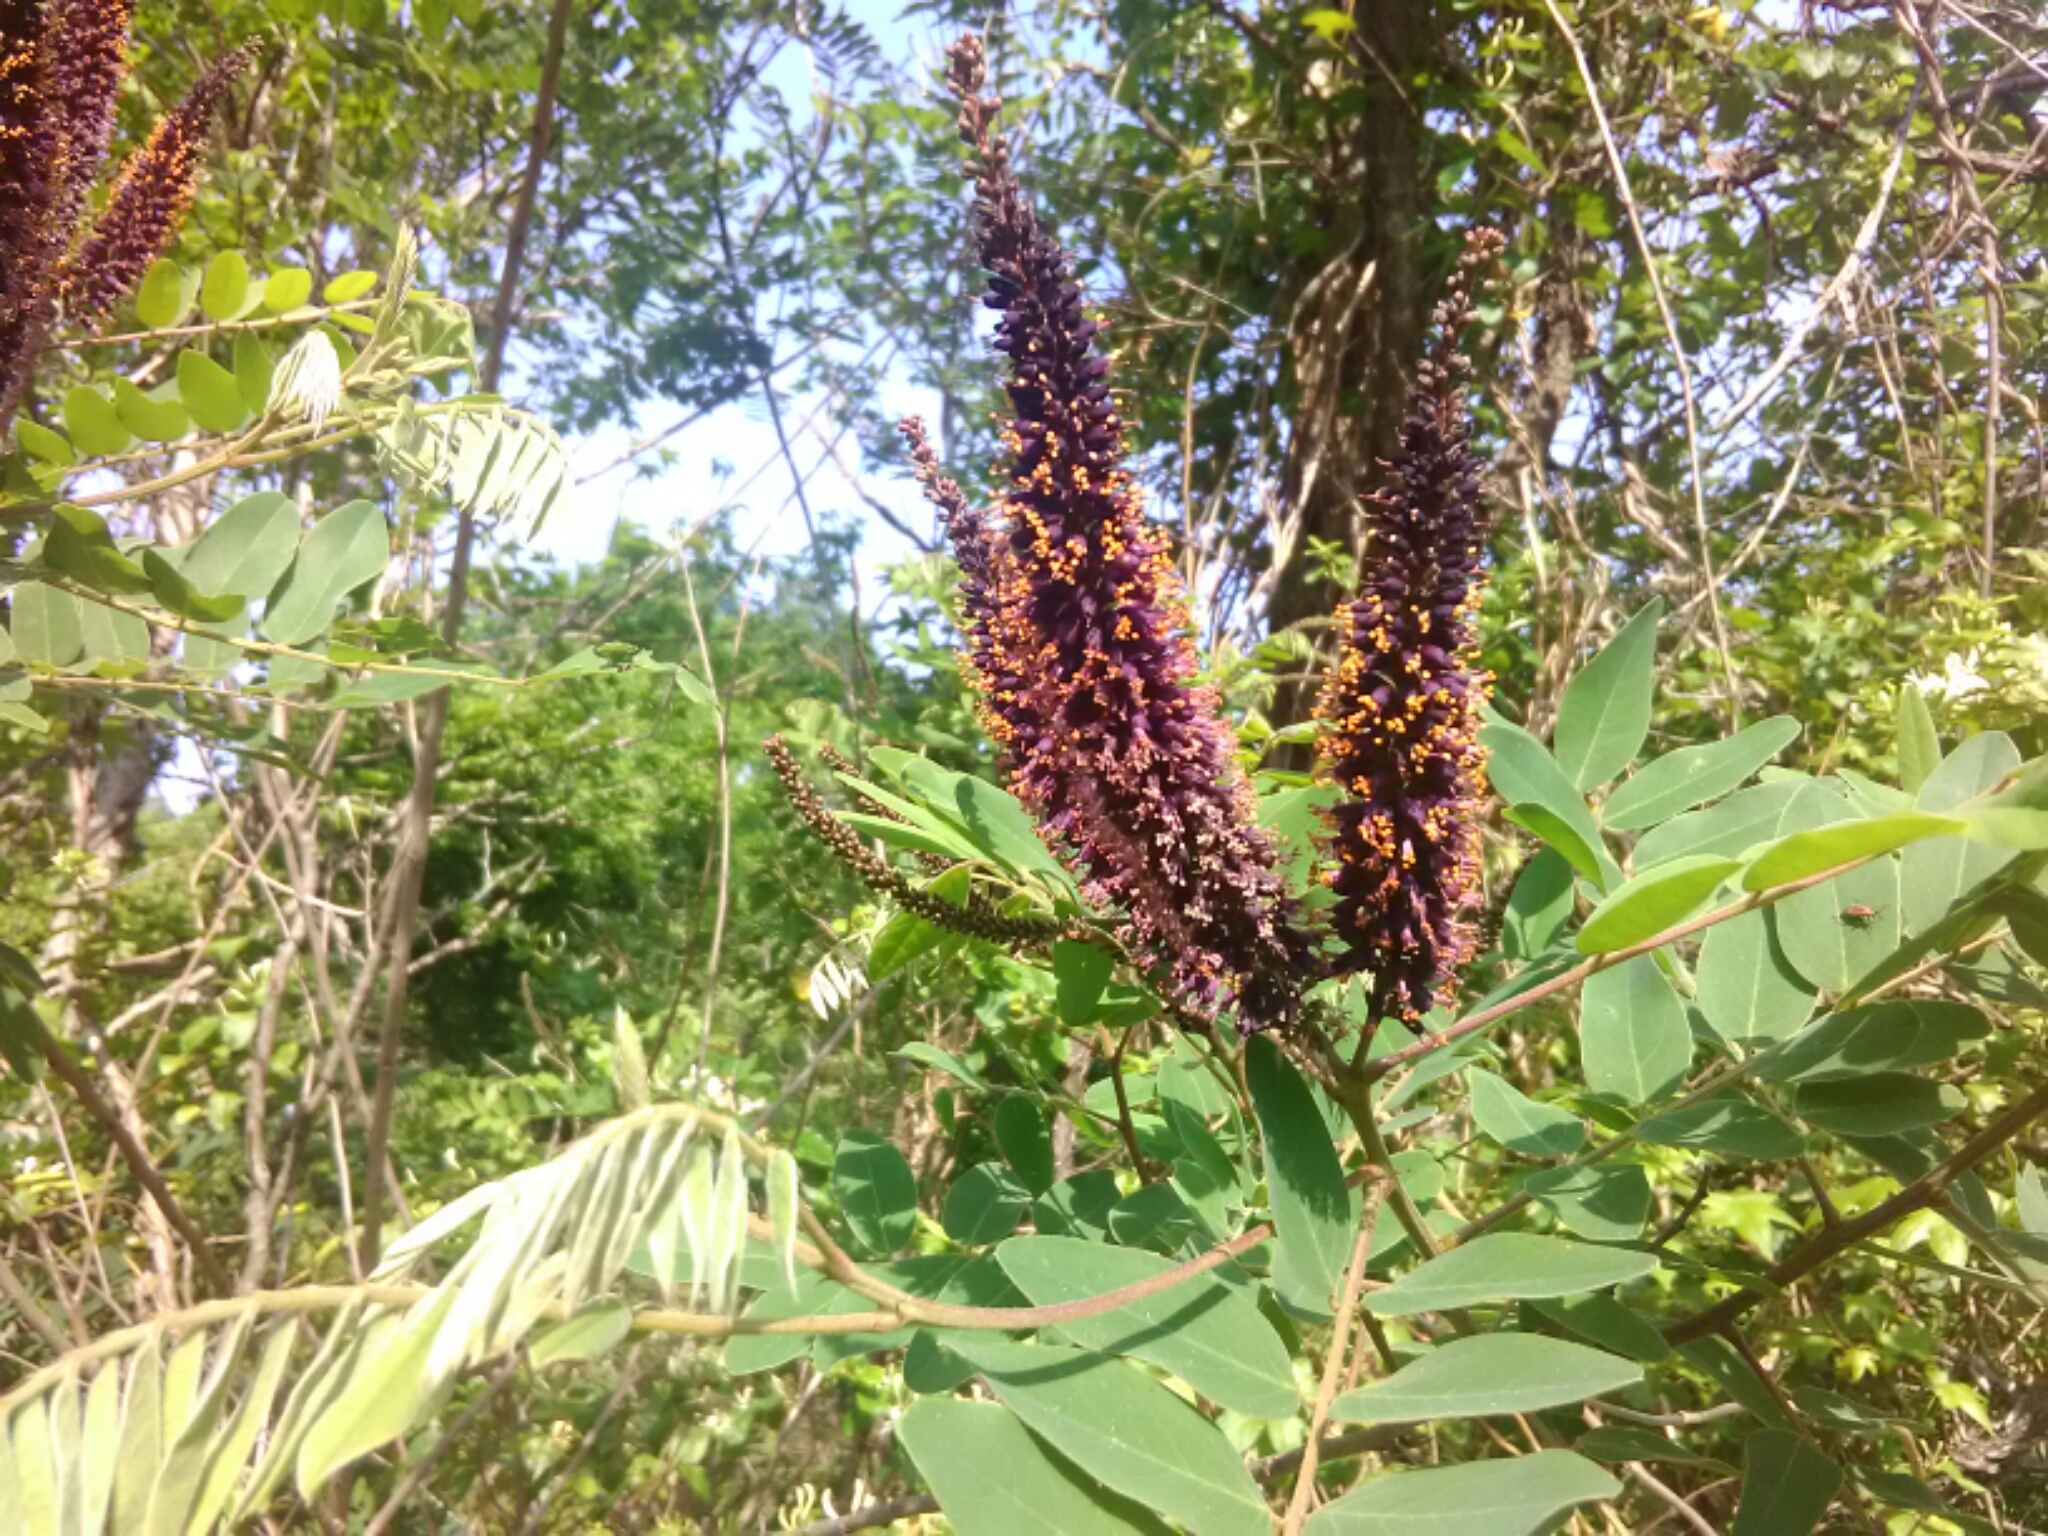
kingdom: Plantae
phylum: Tracheophyta
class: Magnoliopsida
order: Fabales
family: Fabaceae
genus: Amorpha
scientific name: Amorpha fruticosa
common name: False indigo
